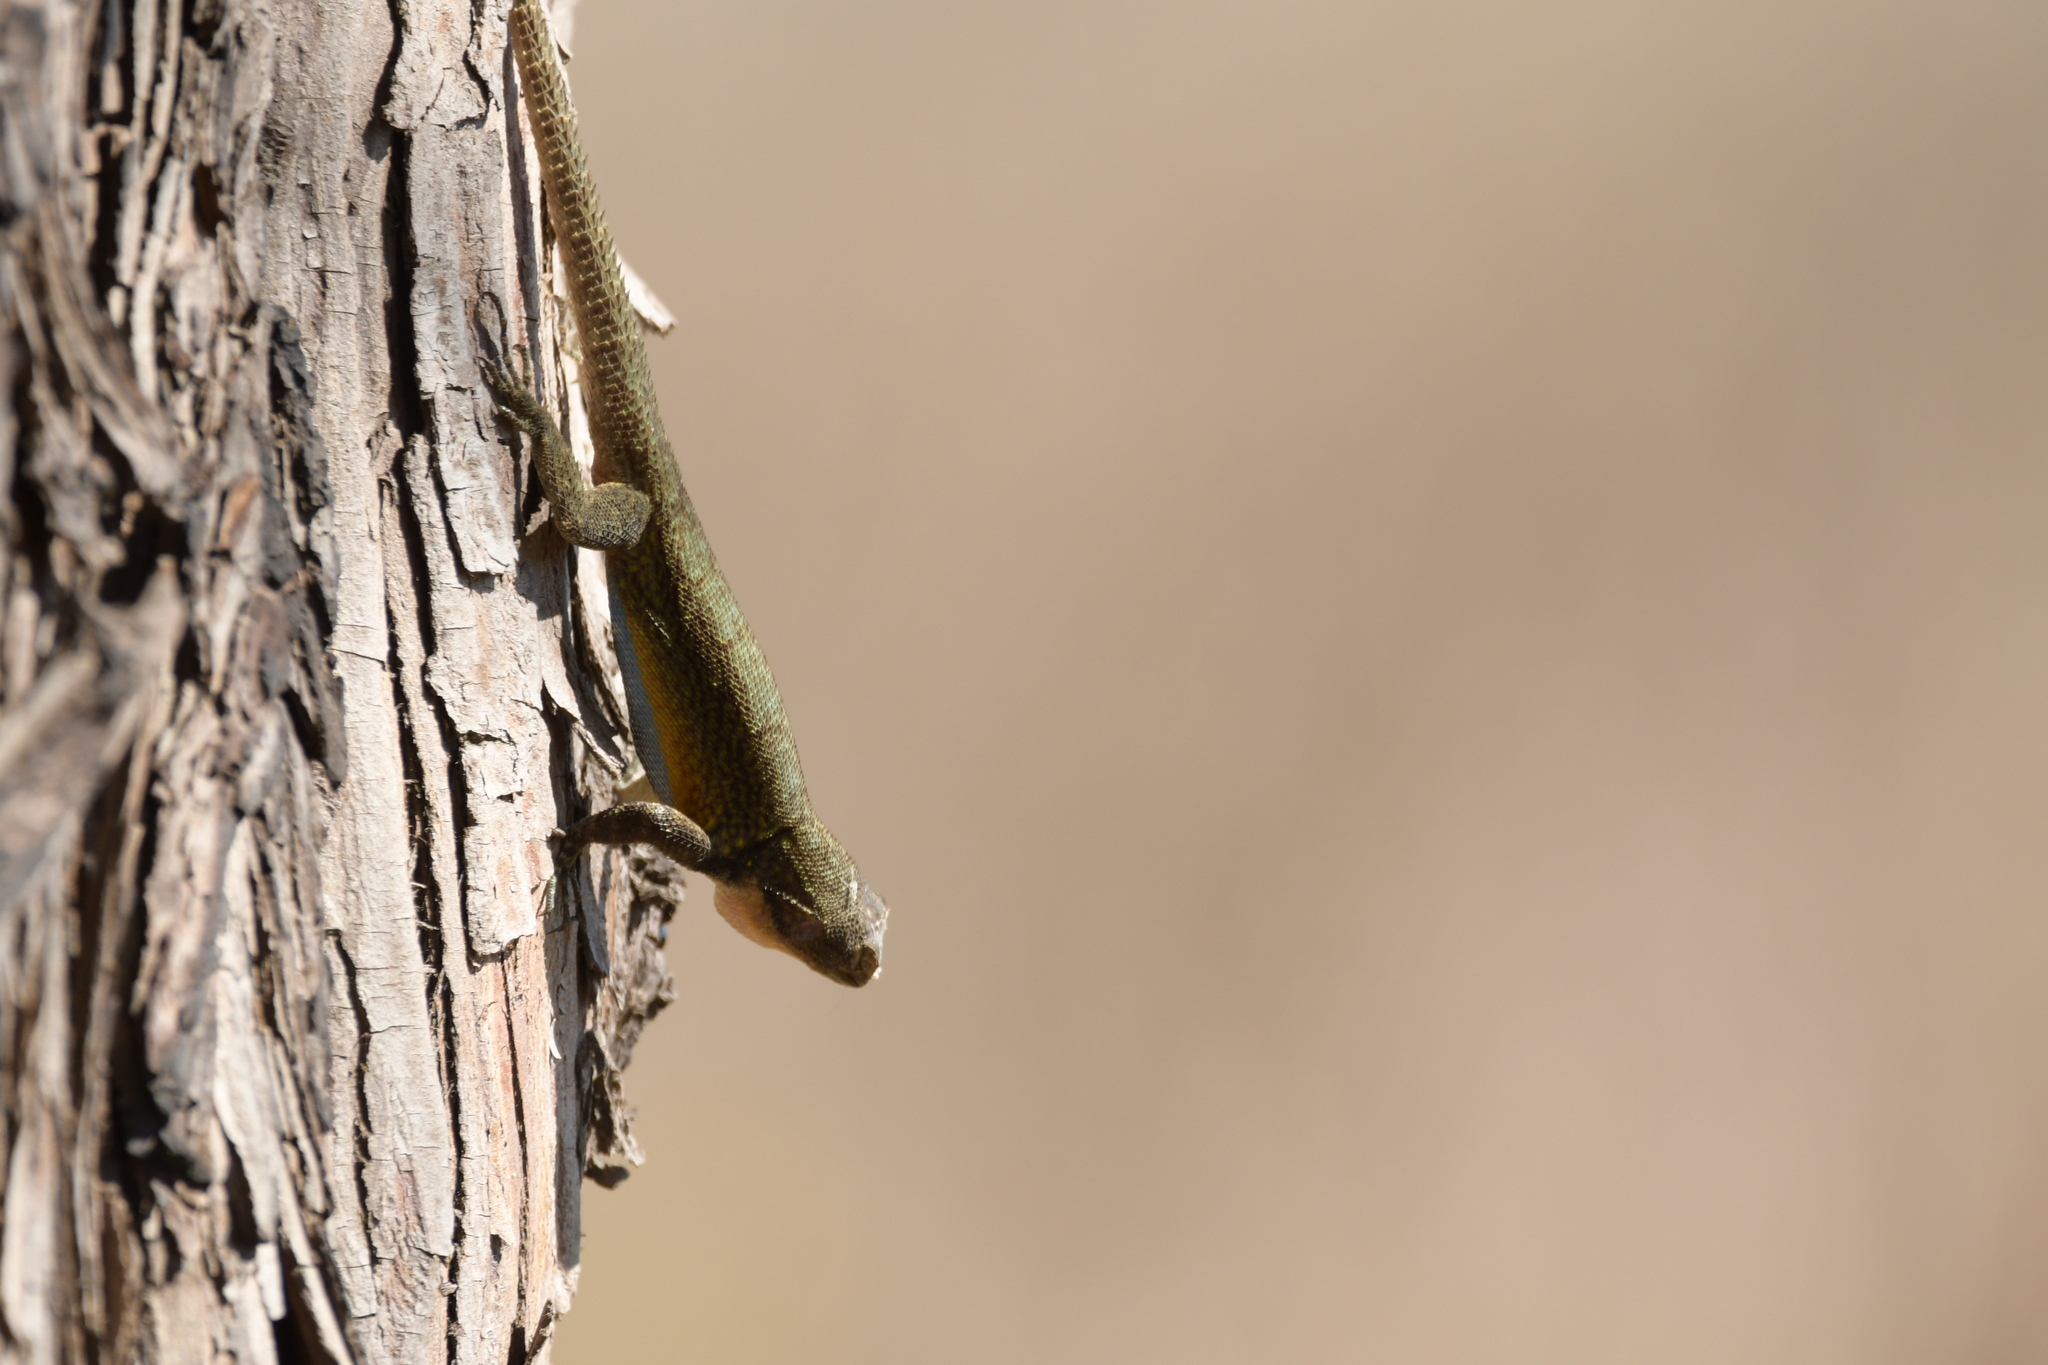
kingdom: Animalia
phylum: Chordata
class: Squamata
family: Phrynosomatidae
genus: Sceloporus
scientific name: Sceloporus grammicus
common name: Mesquite lizard
